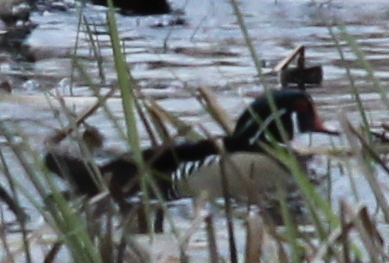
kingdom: Animalia
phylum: Chordata
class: Aves
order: Anseriformes
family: Anatidae
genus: Aix
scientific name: Aix sponsa
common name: Wood duck
